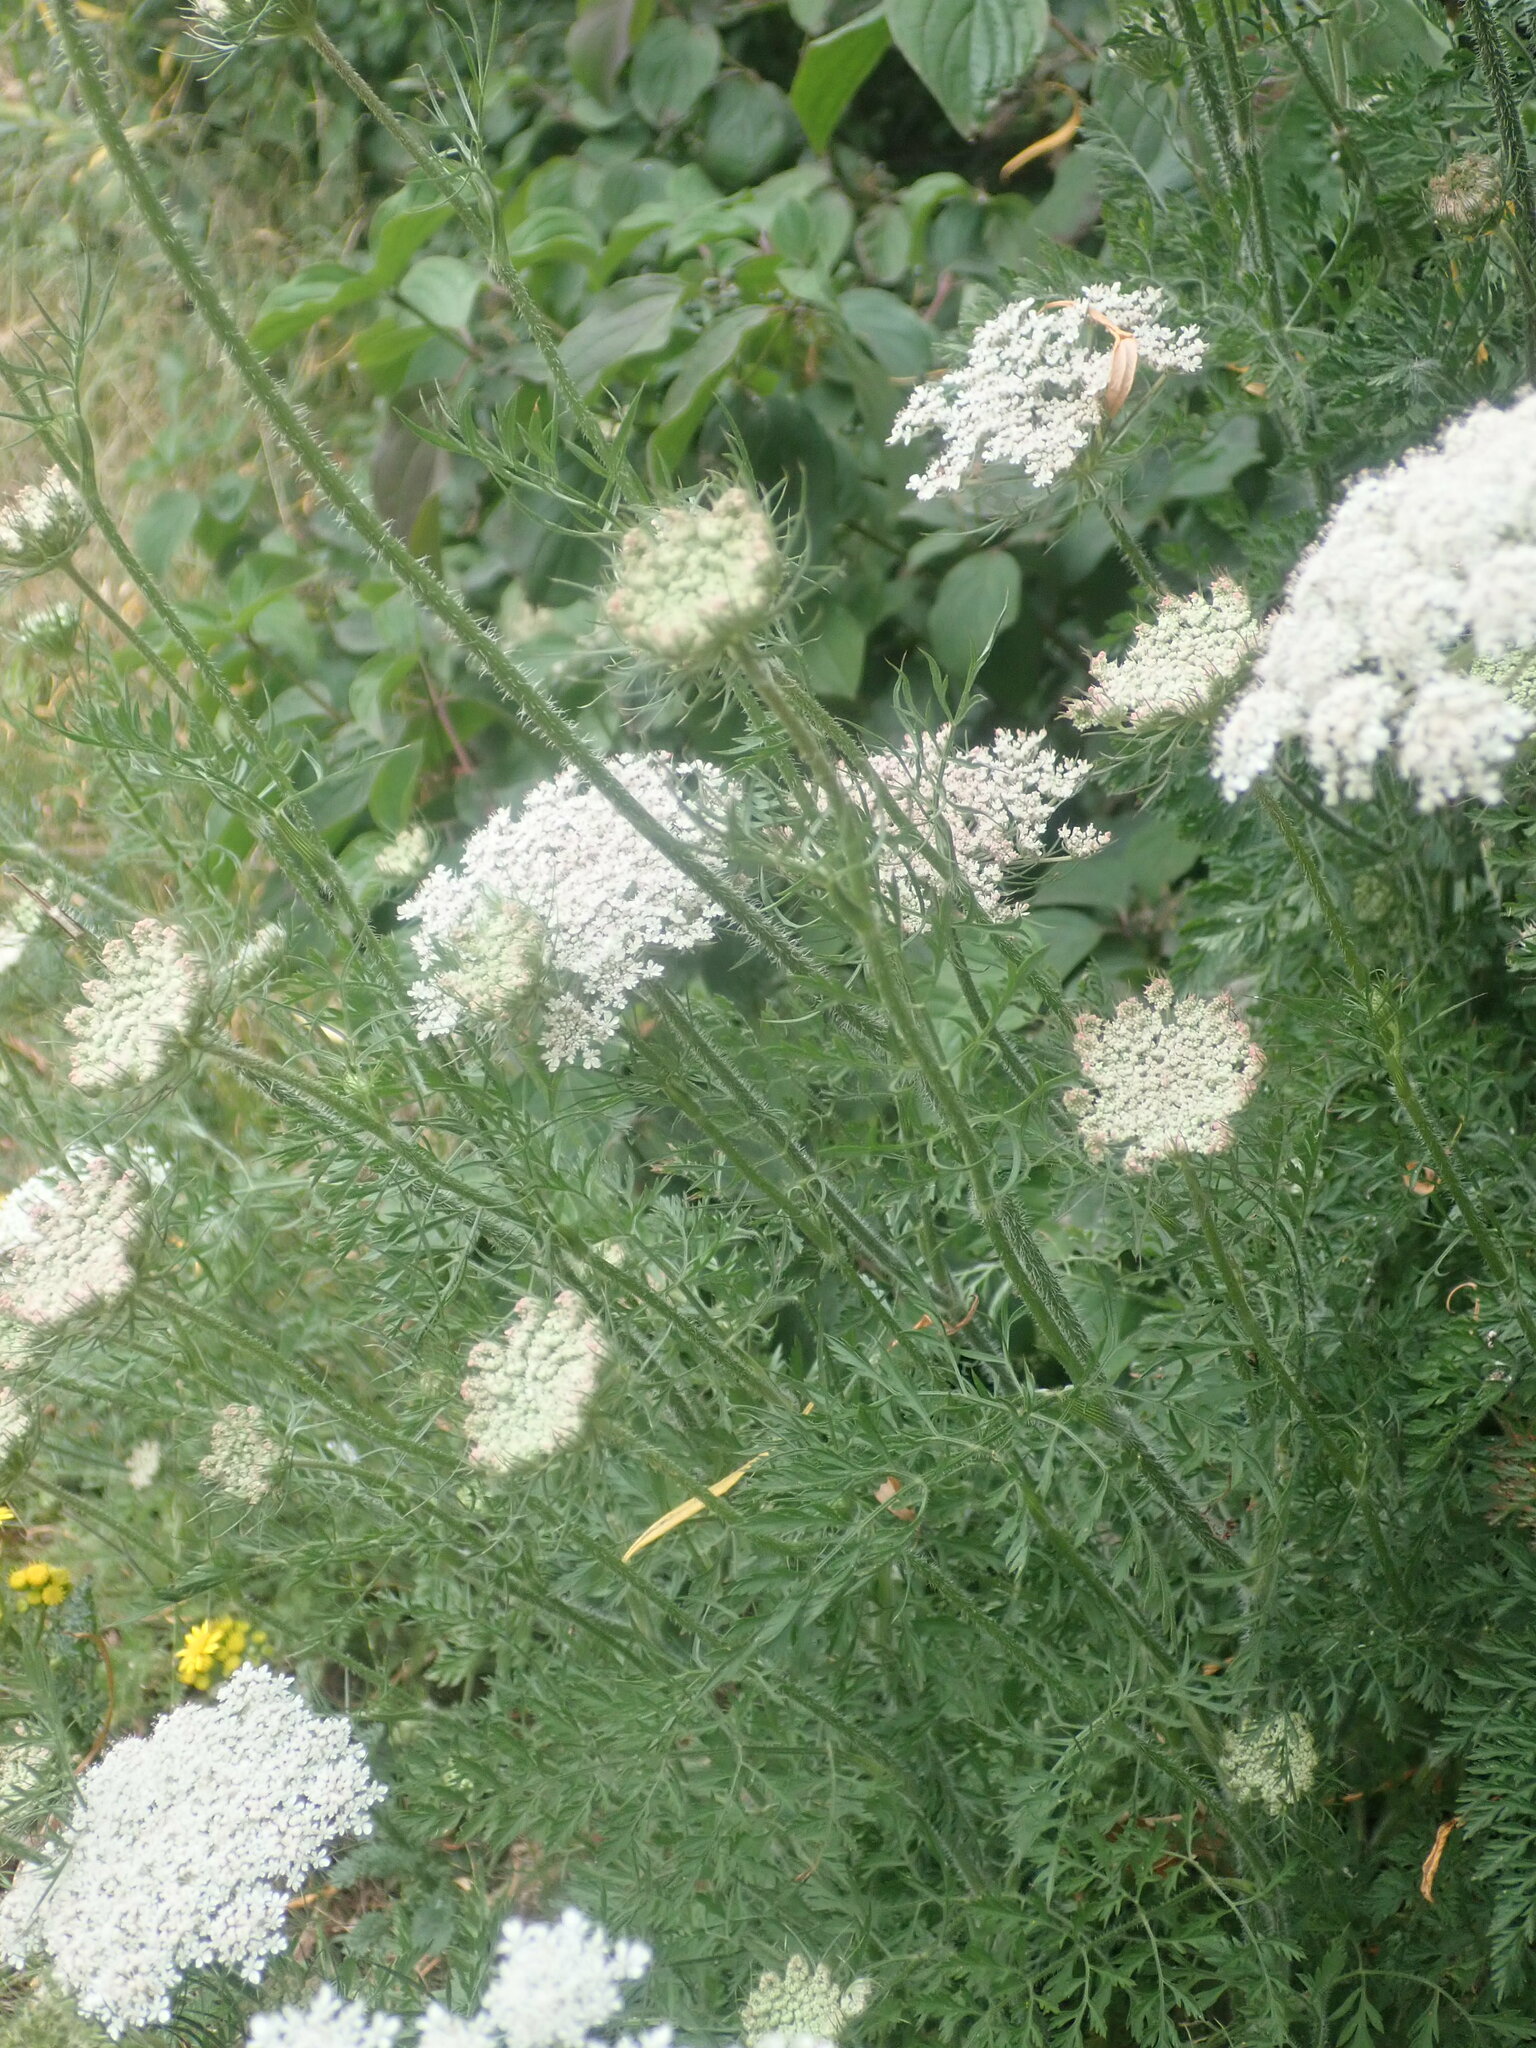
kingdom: Plantae
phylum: Tracheophyta
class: Magnoliopsida
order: Apiales
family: Apiaceae
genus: Daucus
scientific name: Daucus carota
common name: Wild carrot
